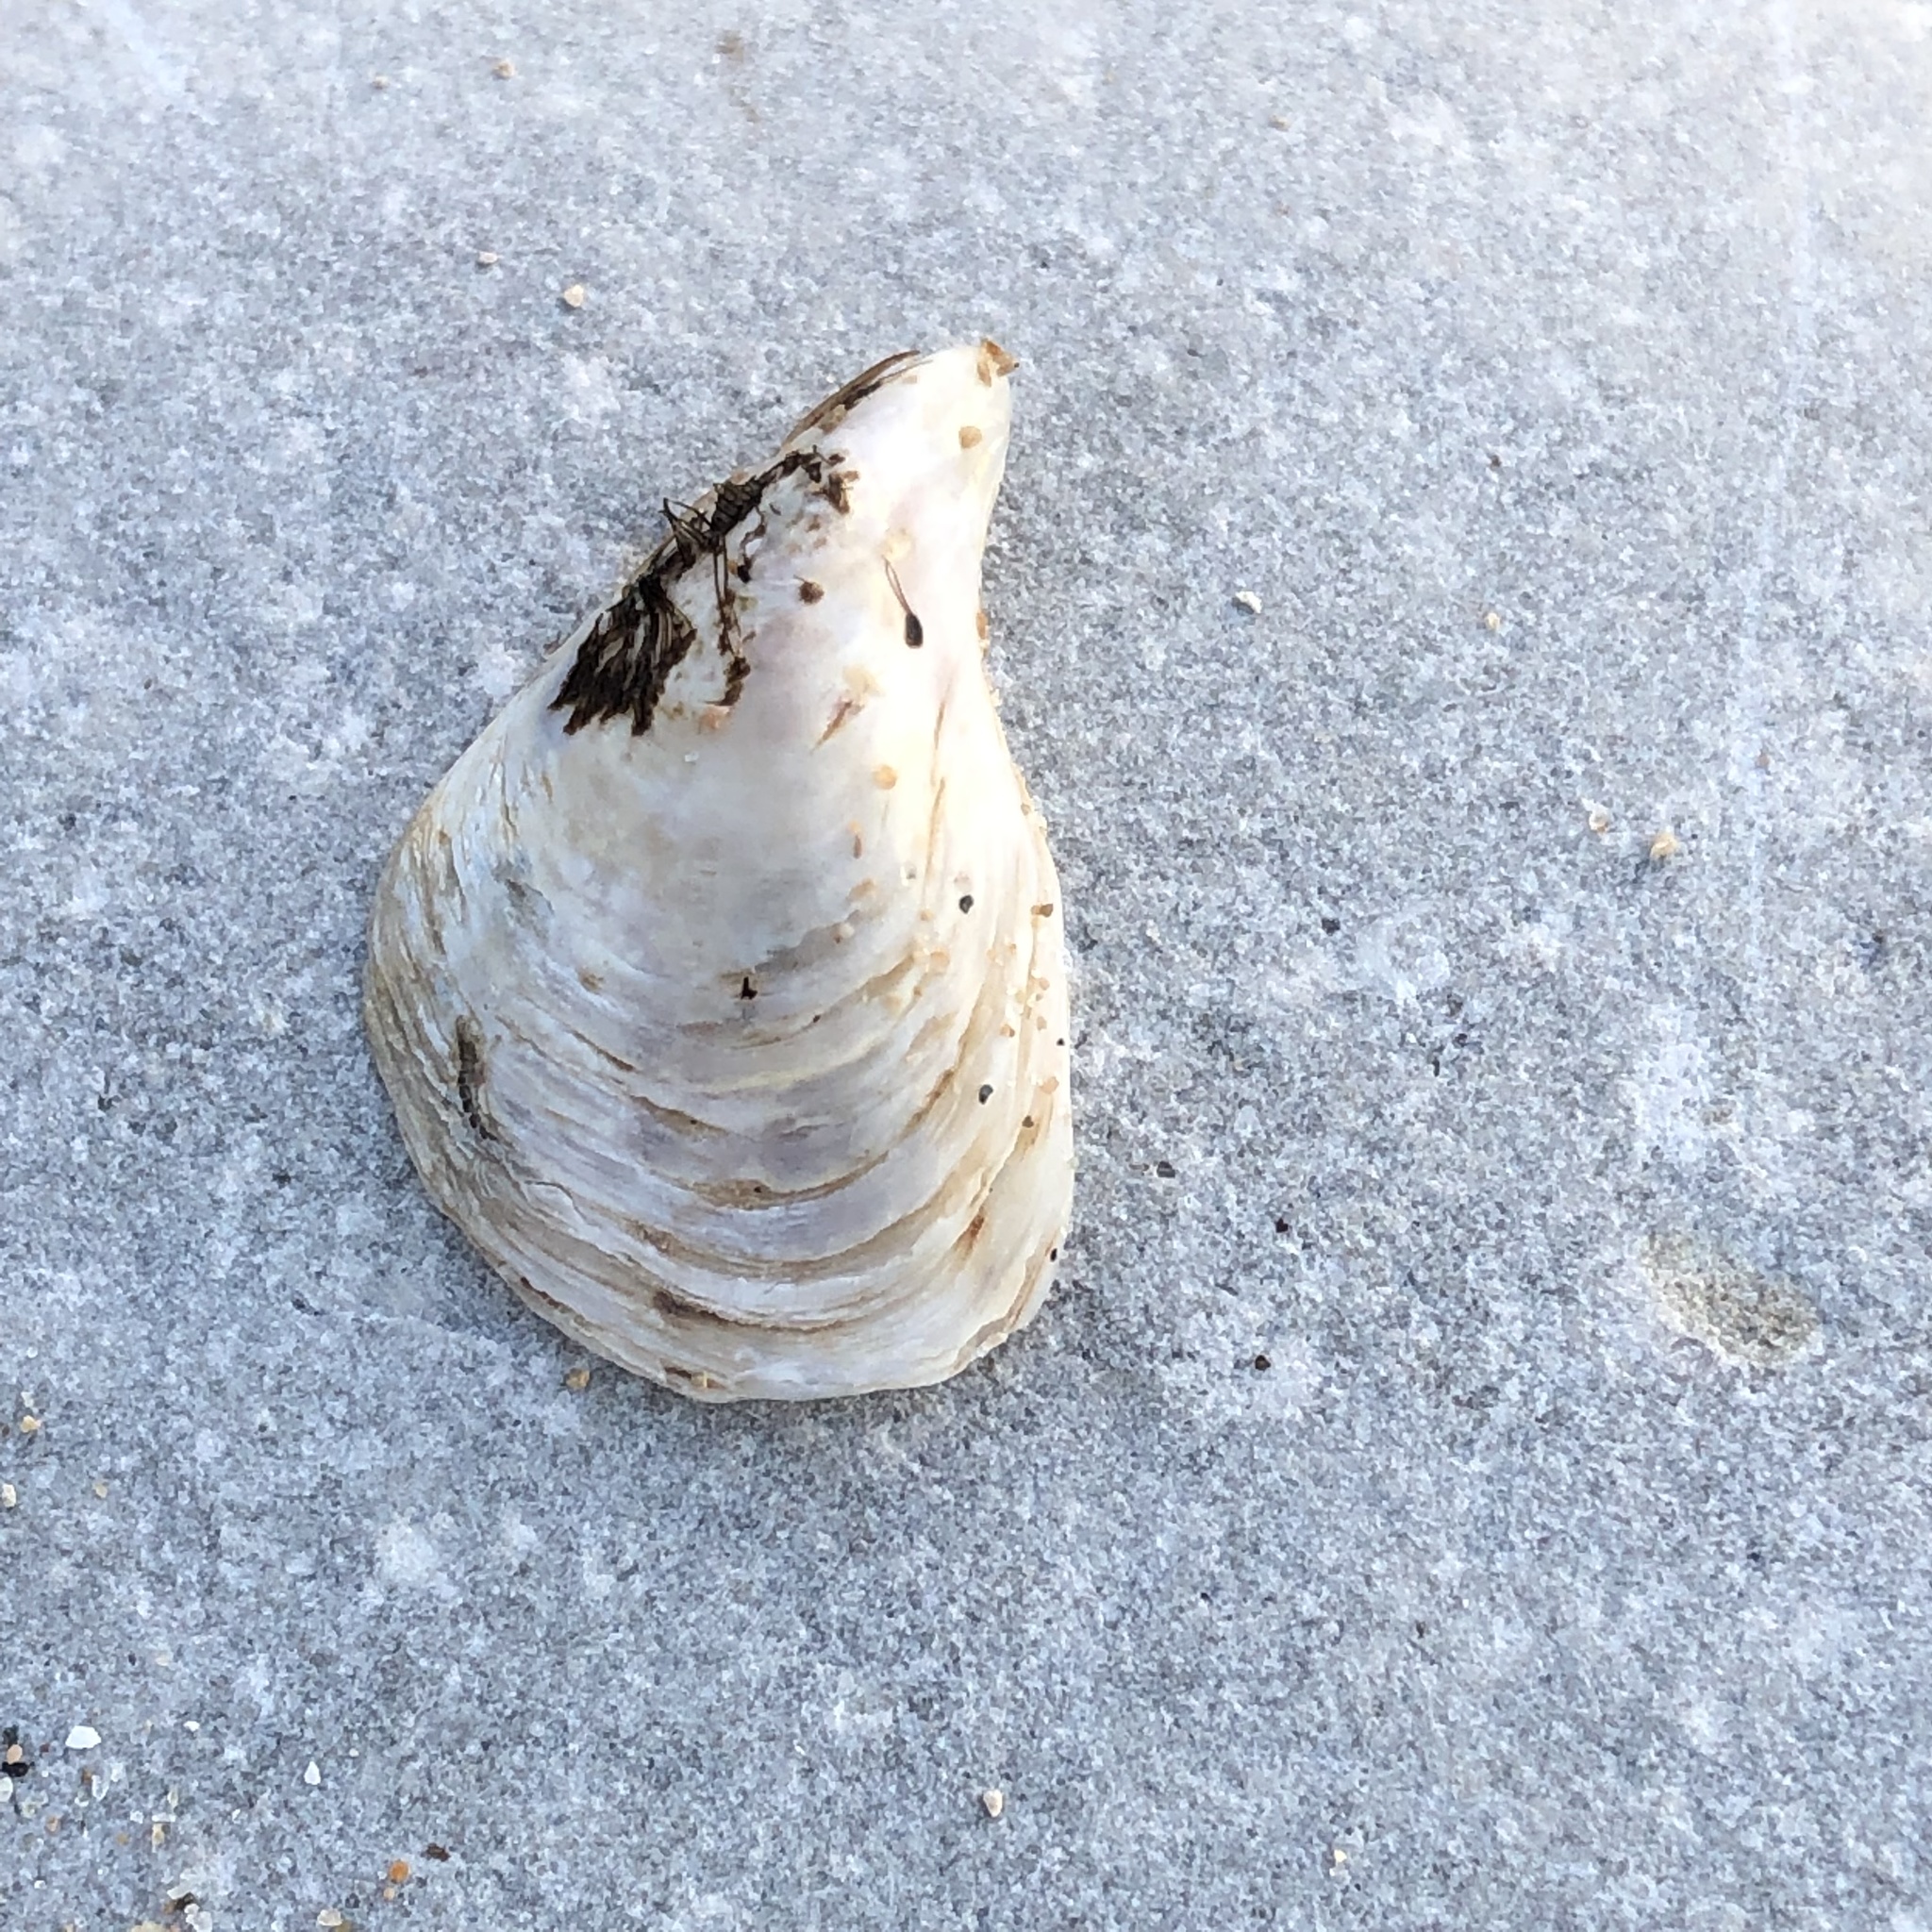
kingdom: Animalia
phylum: Mollusca
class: Bivalvia
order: Myida
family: Dreissenidae
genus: Dreissena
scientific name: Dreissena bugensis
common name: Quagga mussel
